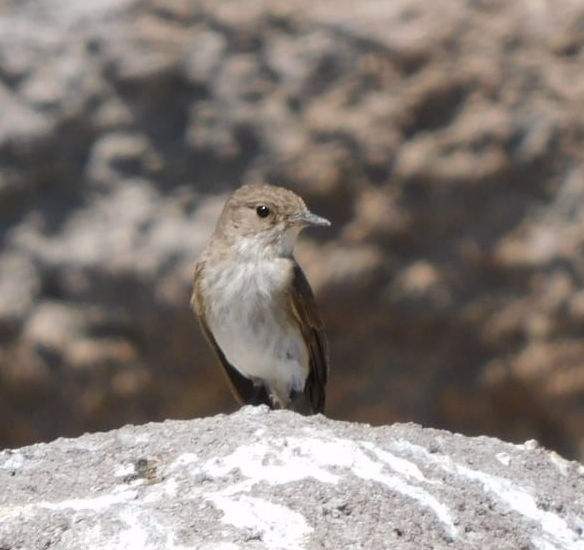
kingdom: Animalia
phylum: Chordata
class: Aves
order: Passeriformes
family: Muscicapidae
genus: Muscicapa
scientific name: Muscicapa striata
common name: Spotted flycatcher
